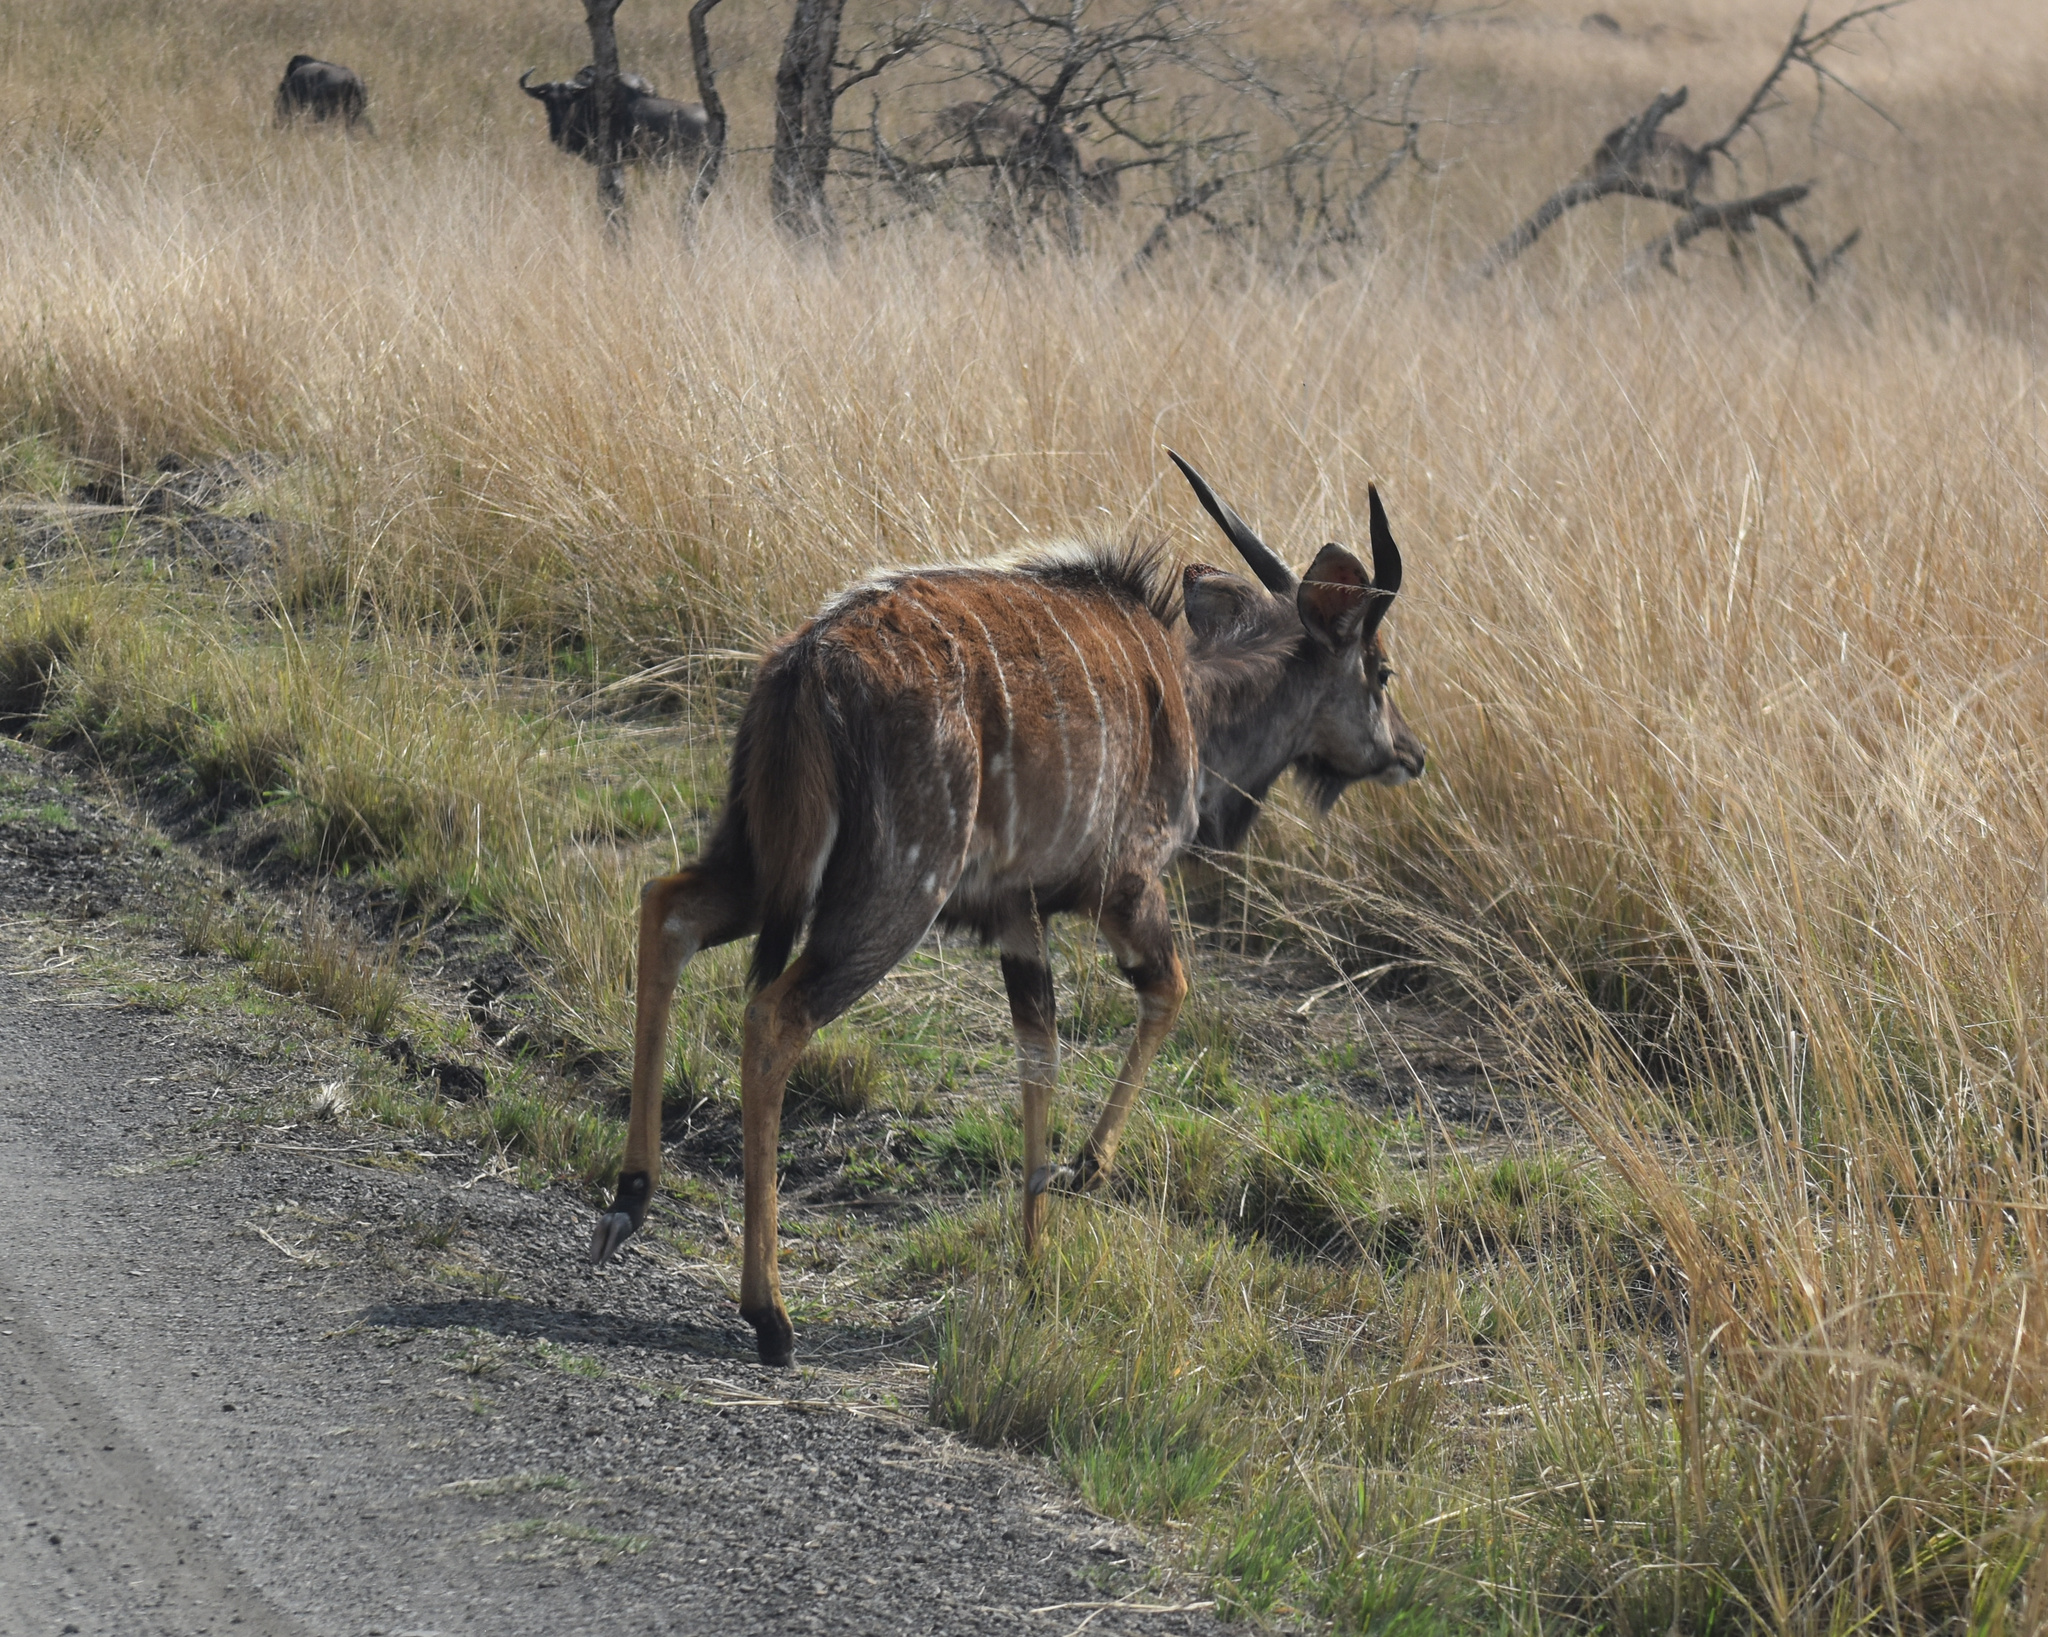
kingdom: Animalia
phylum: Chordata
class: Mammalia
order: Artiodactyla
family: Bovidae
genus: Tragelaphus
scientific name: Tragelaphus angasii
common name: Nyala
